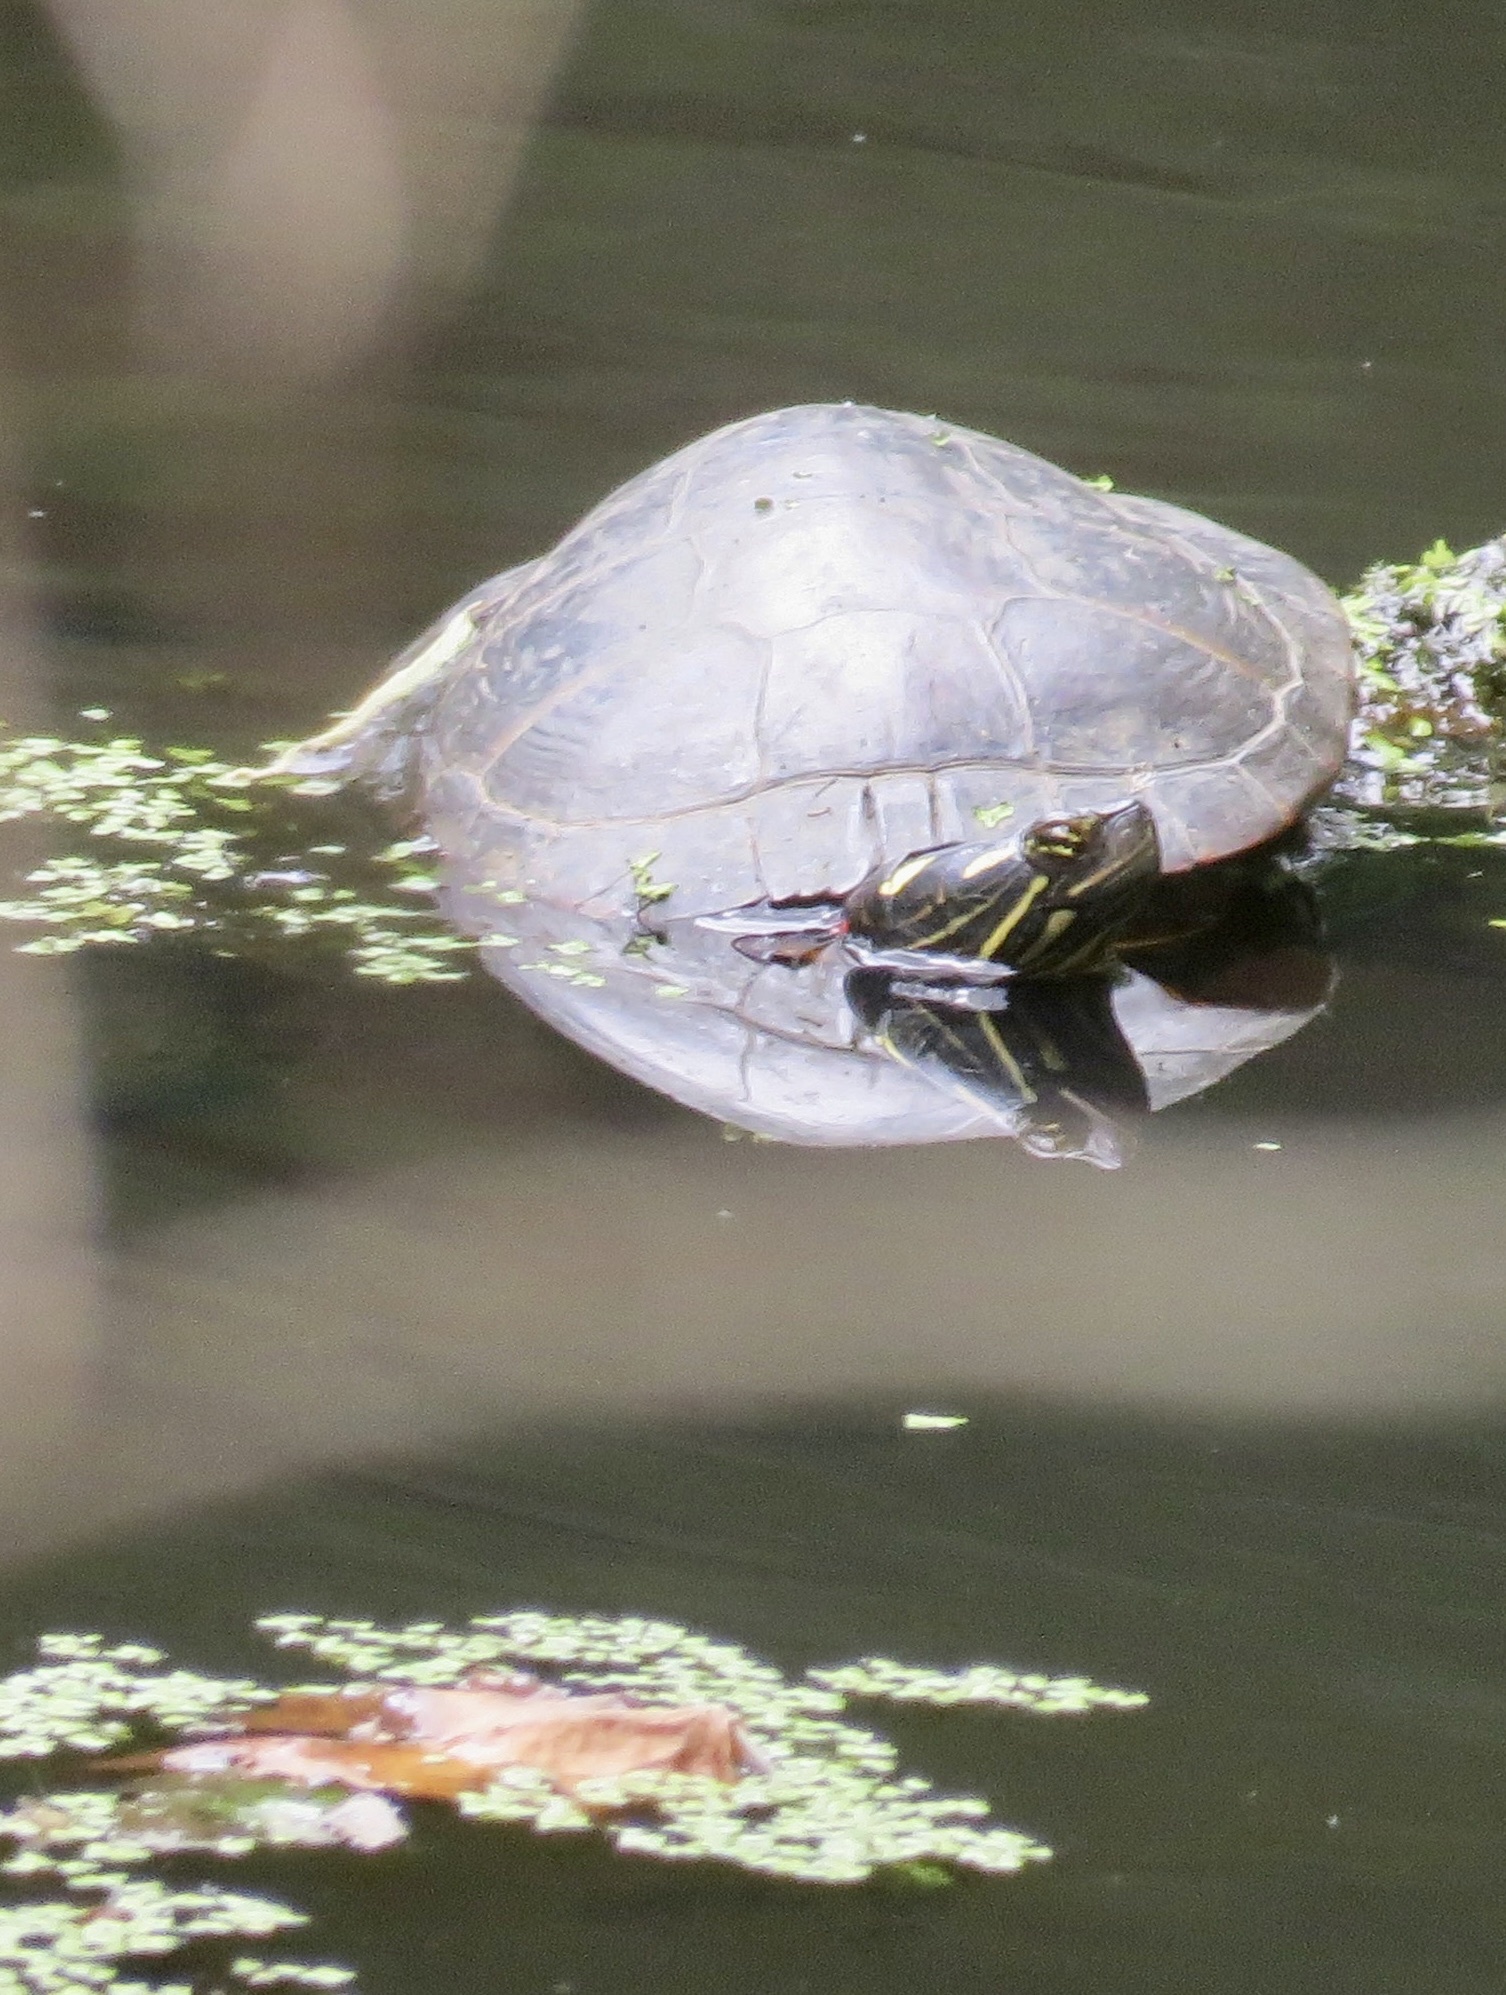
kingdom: Animalia
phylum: Chordata
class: Testudines
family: Emydidae
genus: Chrysemys
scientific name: Chrysemys picta
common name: Painted turtle
